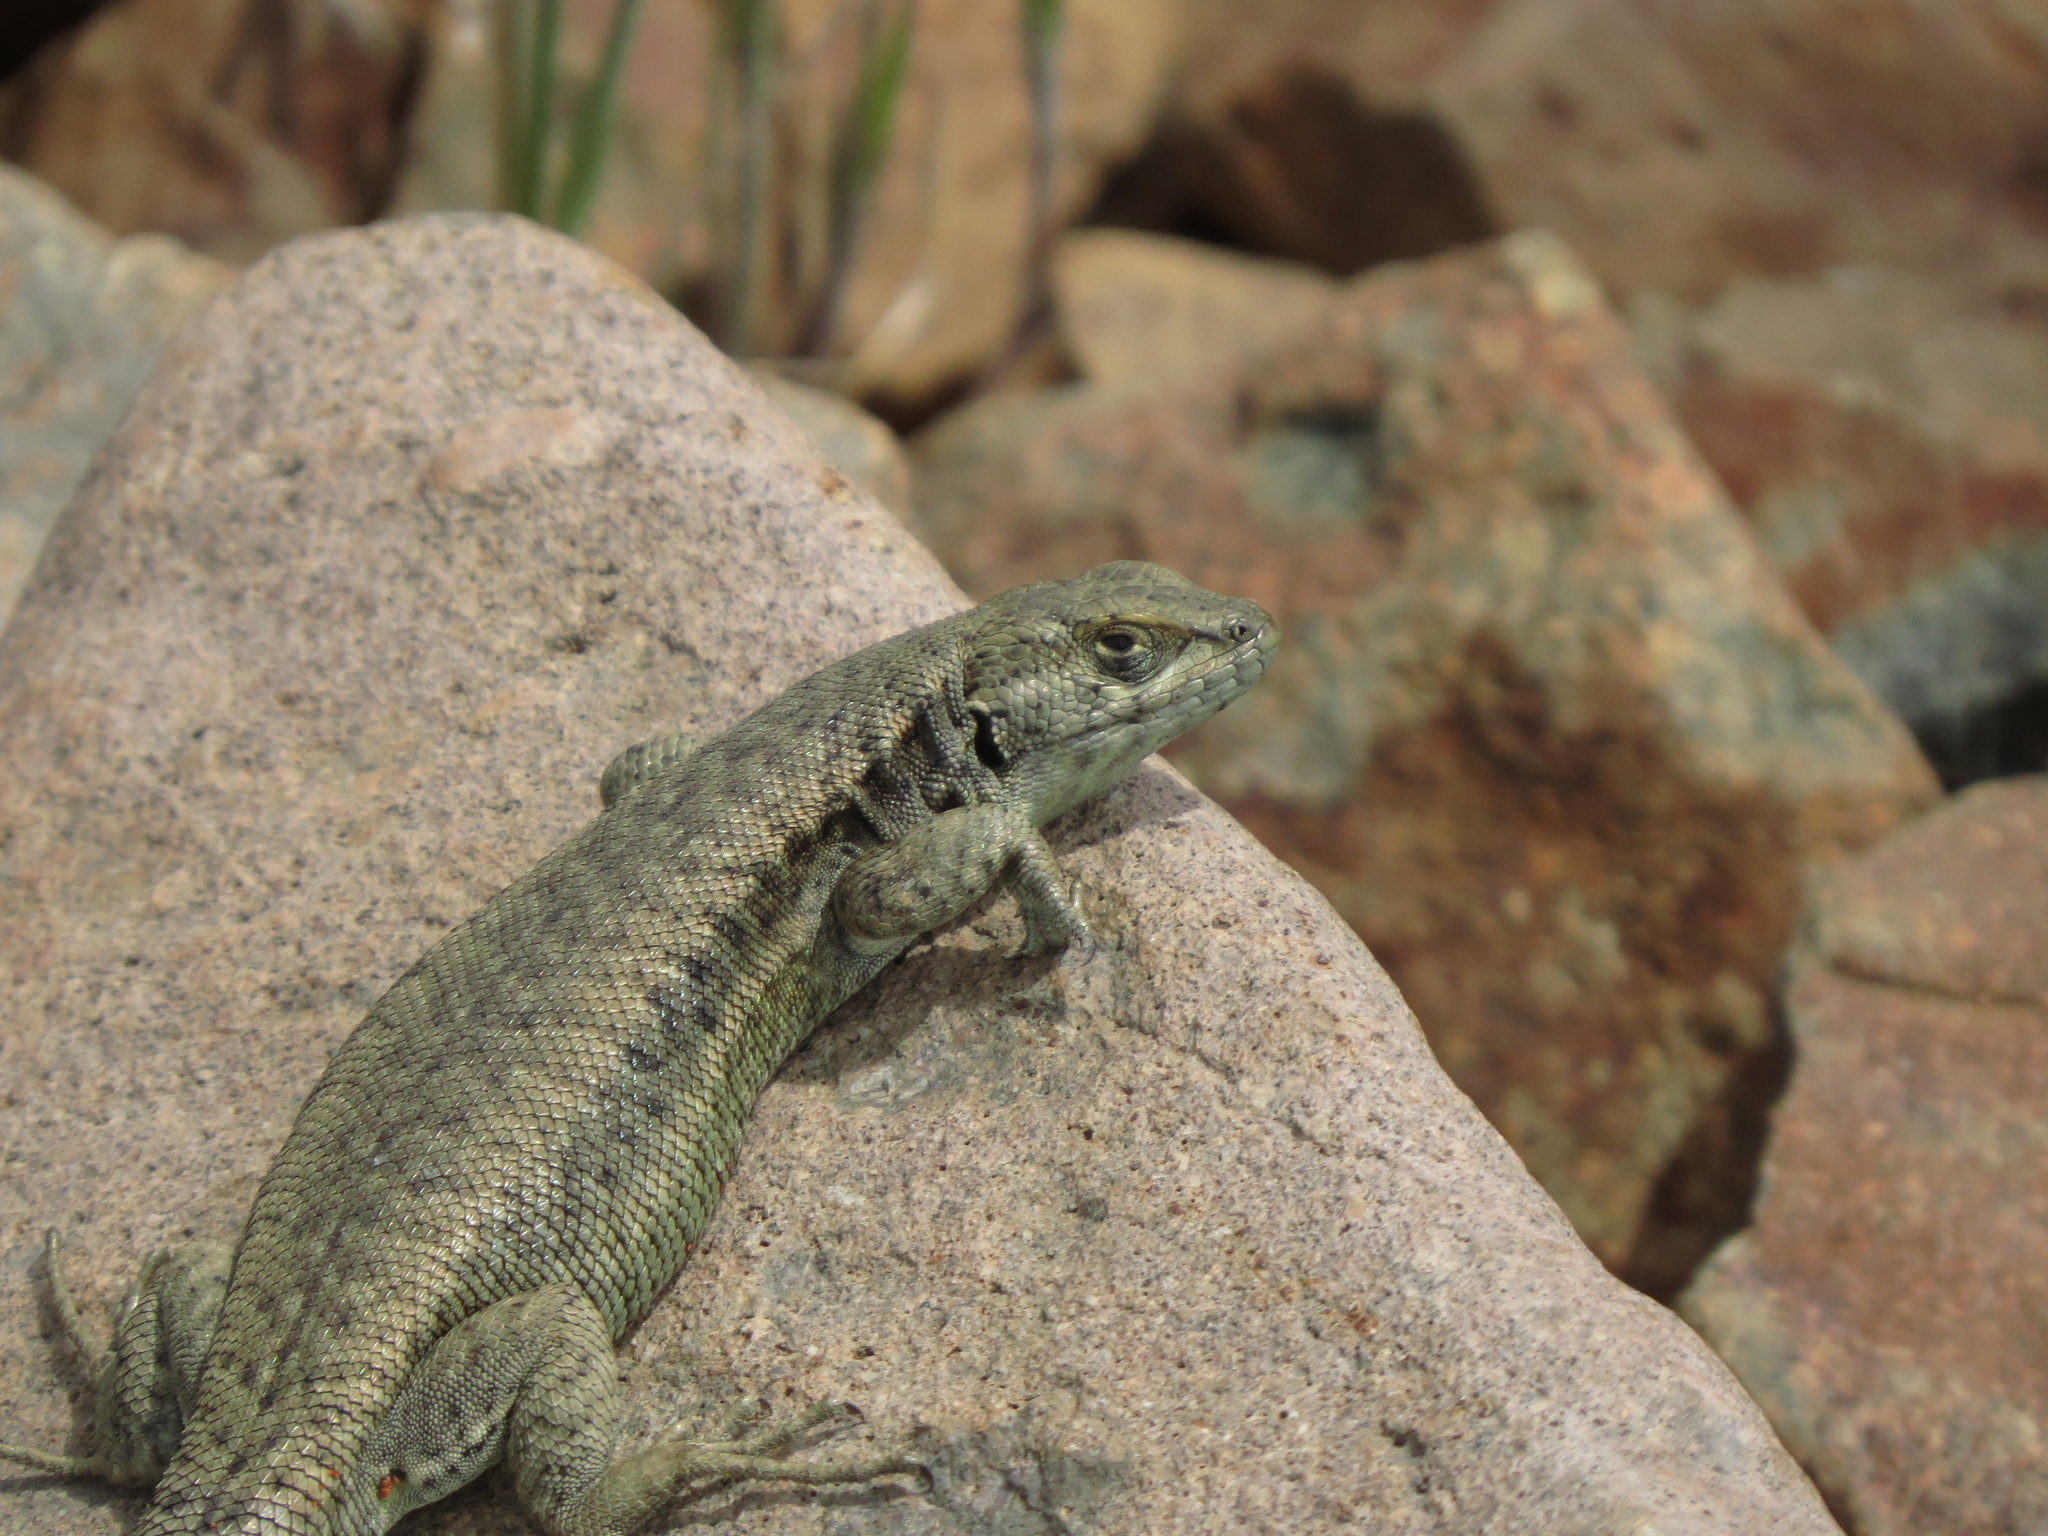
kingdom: Animalia
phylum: Chordata
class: Squamata
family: Liolaemidae
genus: Liolaemus
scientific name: Liolaemus frassinettii
